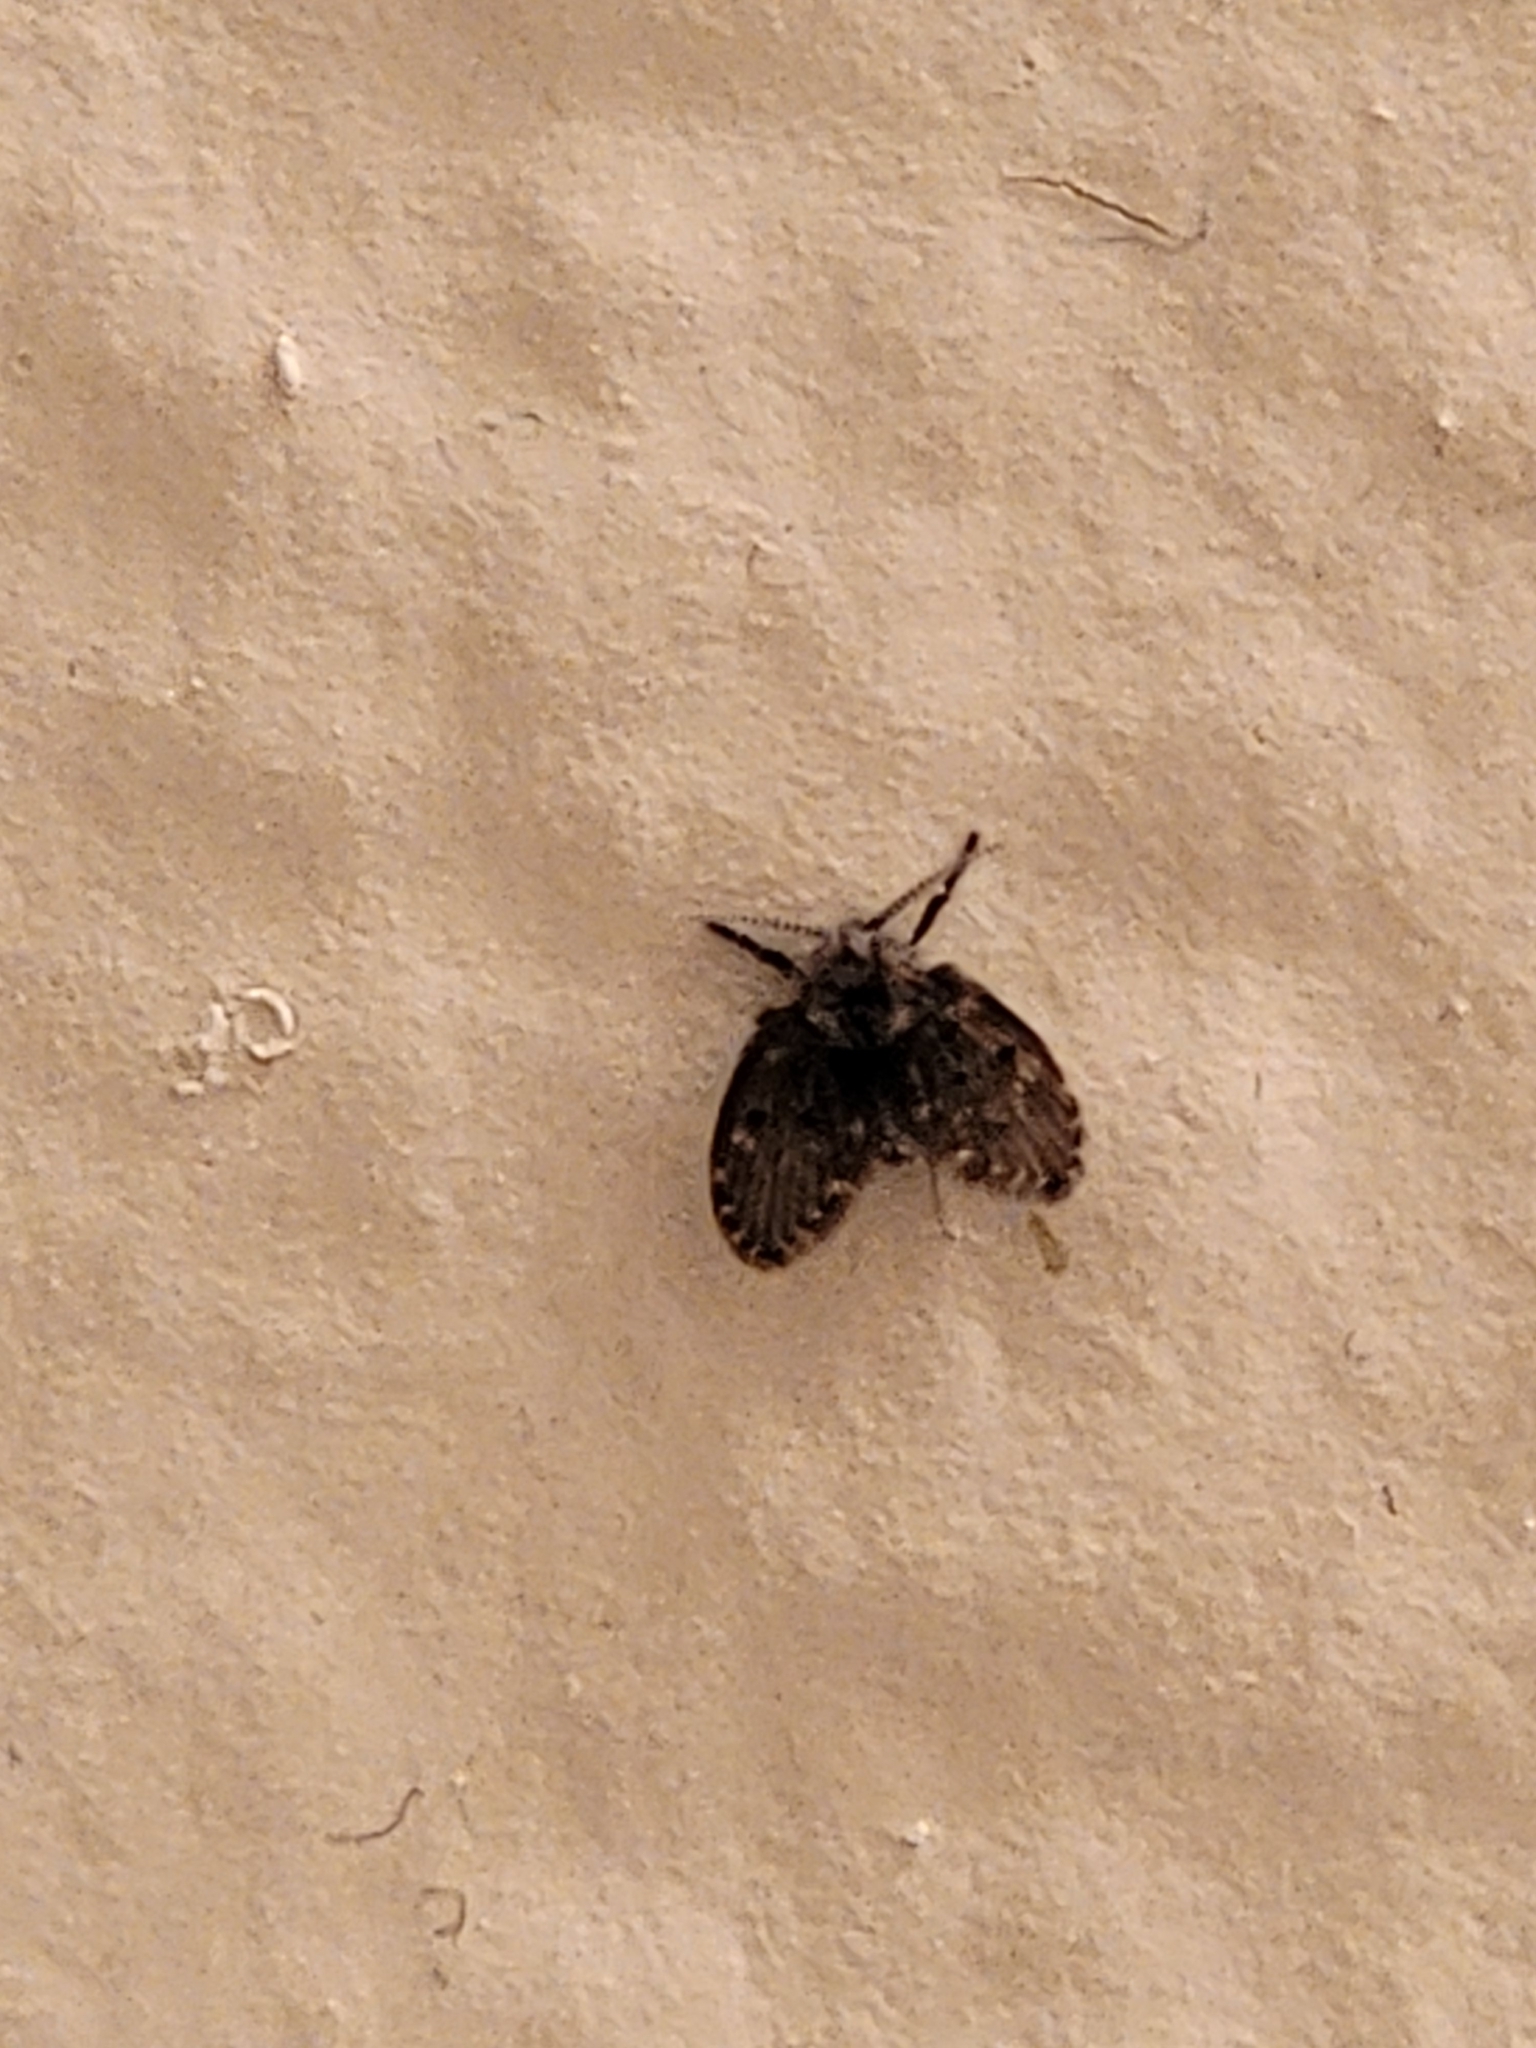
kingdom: Animalia
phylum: Arthropoda
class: Insecta
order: Diptera
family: Psychodidae
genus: Clogmia
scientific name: Clogmia albipunctatus
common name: White-spotted moth fly
